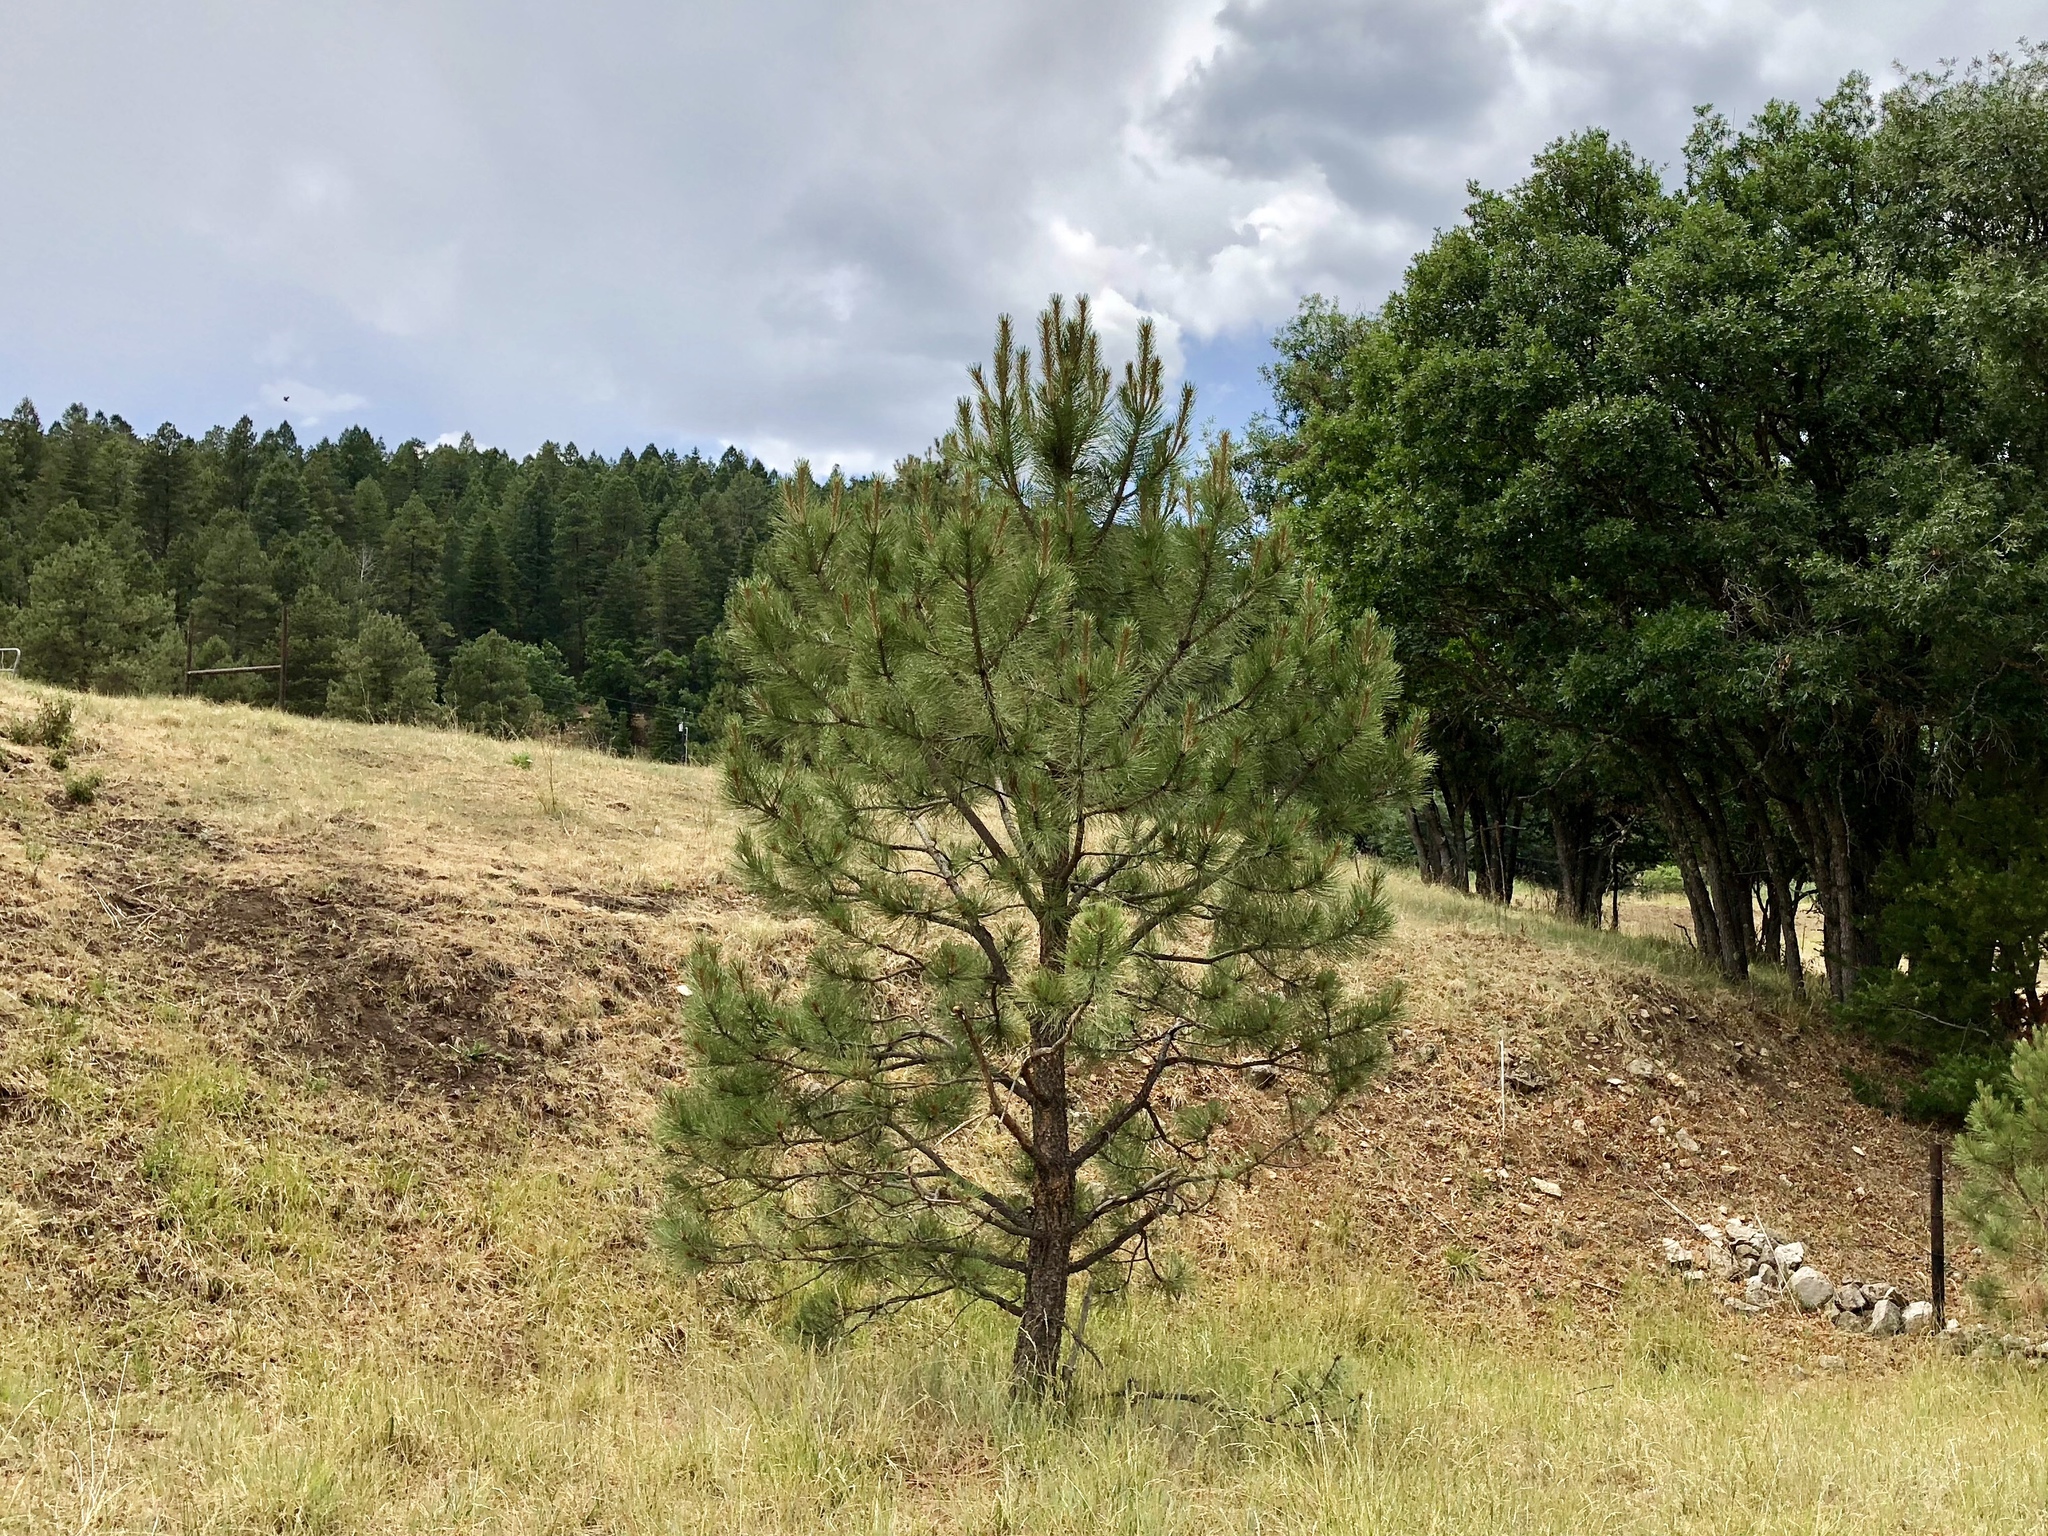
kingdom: Plantae
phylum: Tracheophyta
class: Pinopsida
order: Pinales
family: Pinaceae
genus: Pinus
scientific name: Pinus ponderosa
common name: Western yellow-pine
